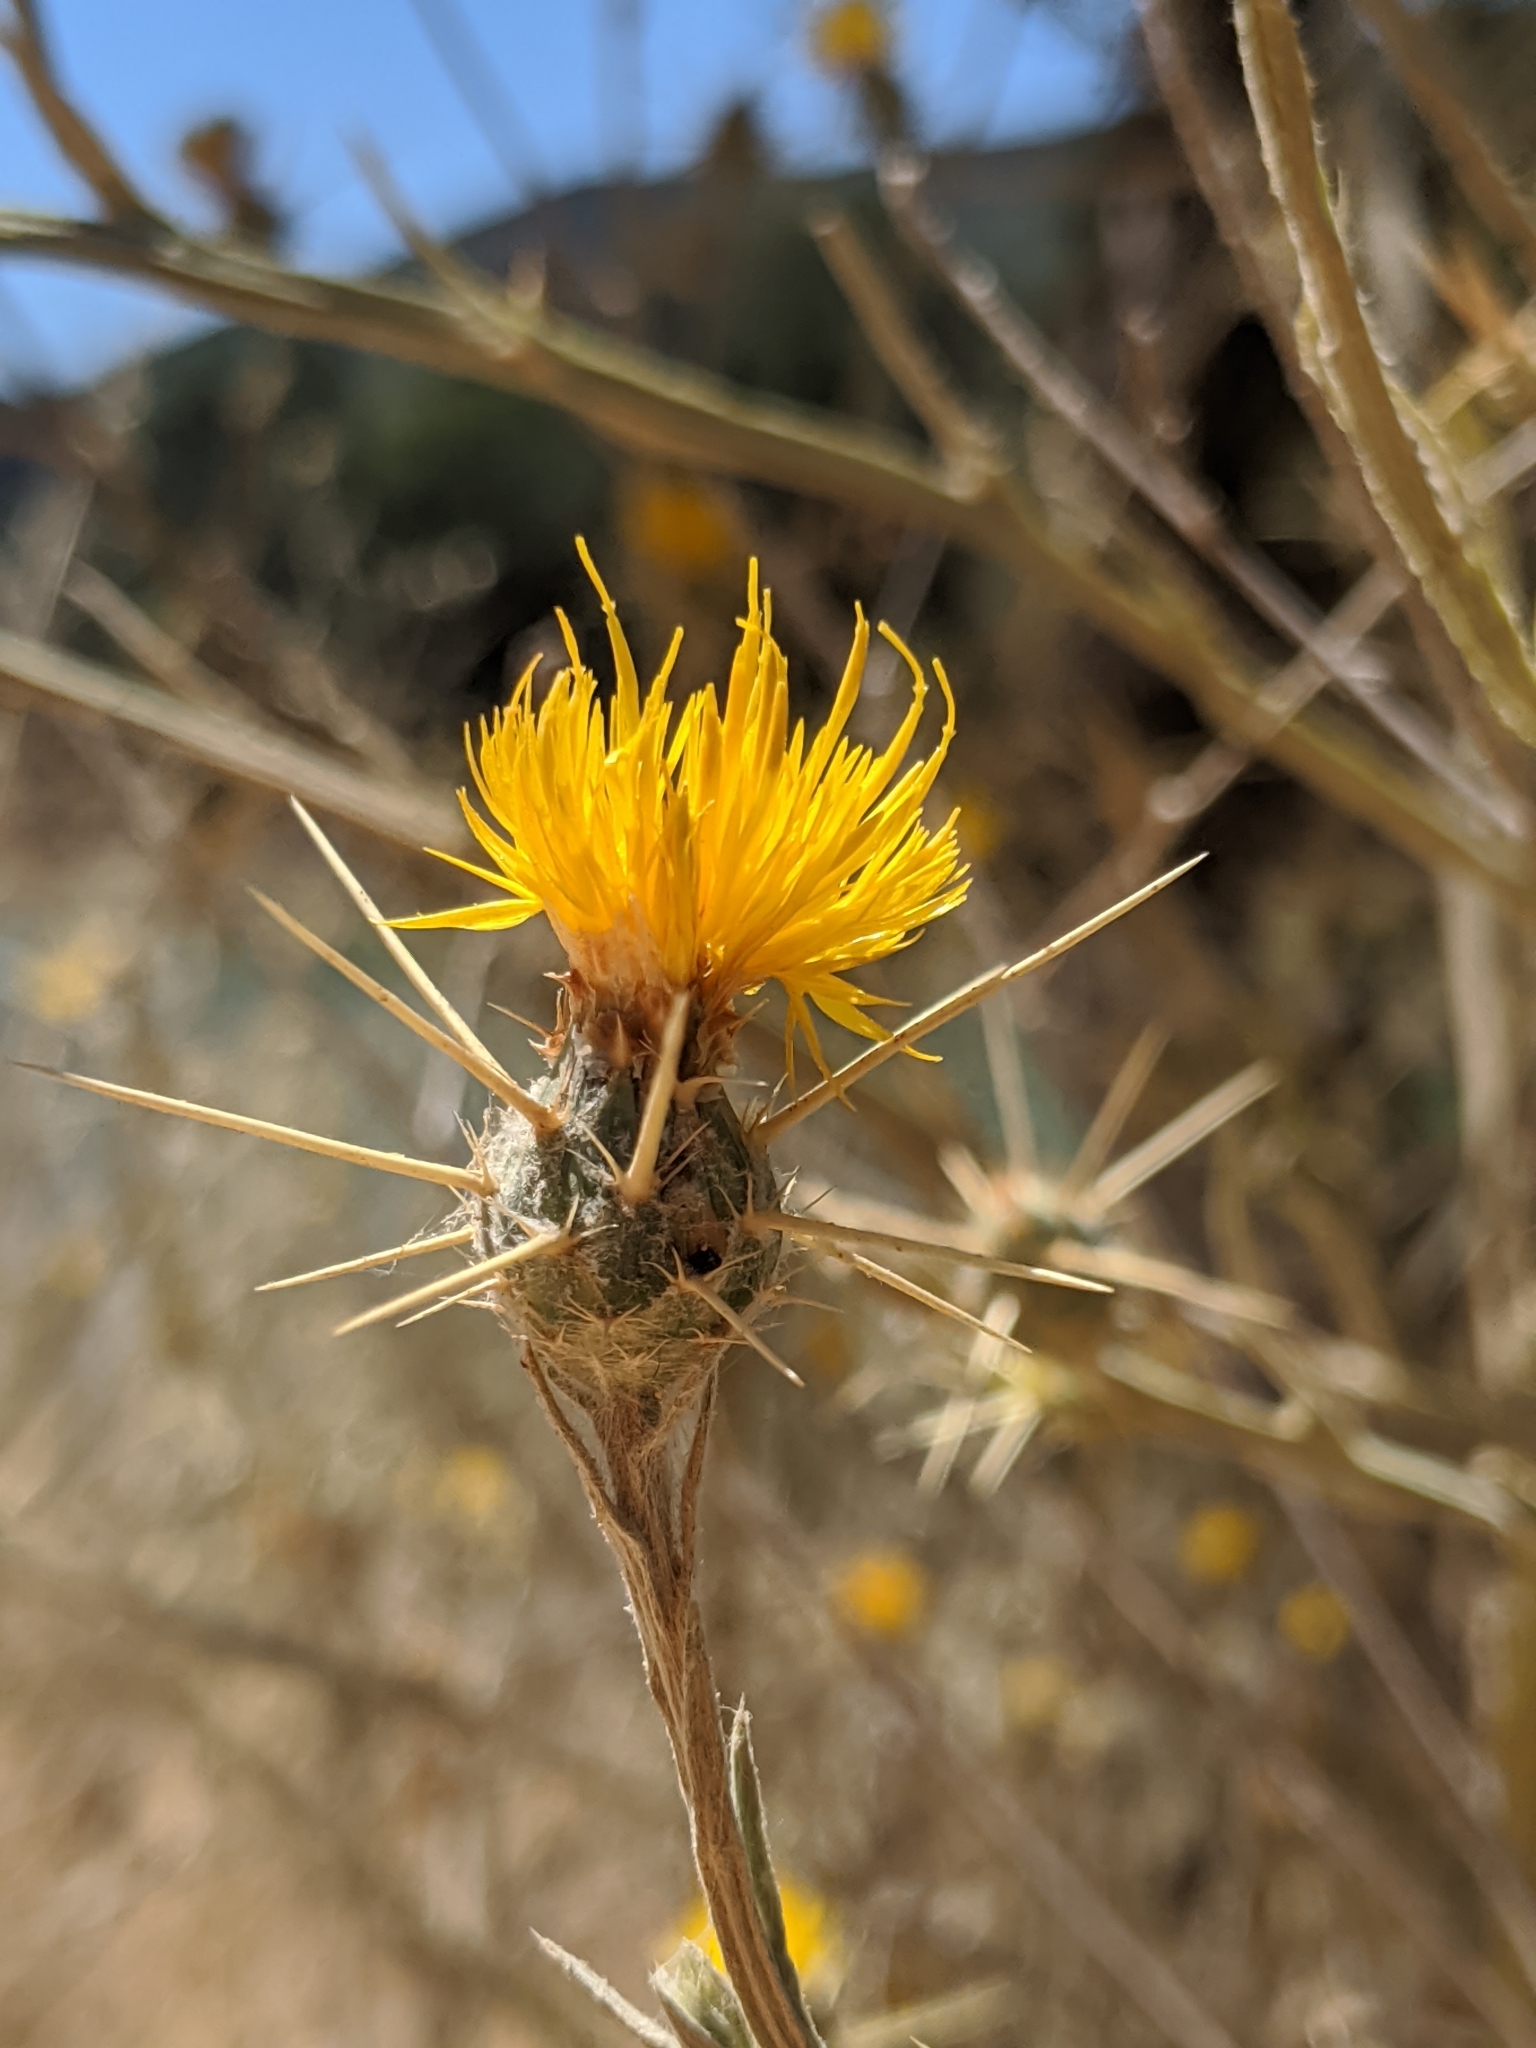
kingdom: Plantae
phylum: Tracheophyta
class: Magnoliopsida
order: Asterales
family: Asteraceae
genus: Centaurea
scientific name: Centaurea solstitialis
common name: Yellow star-thistle
